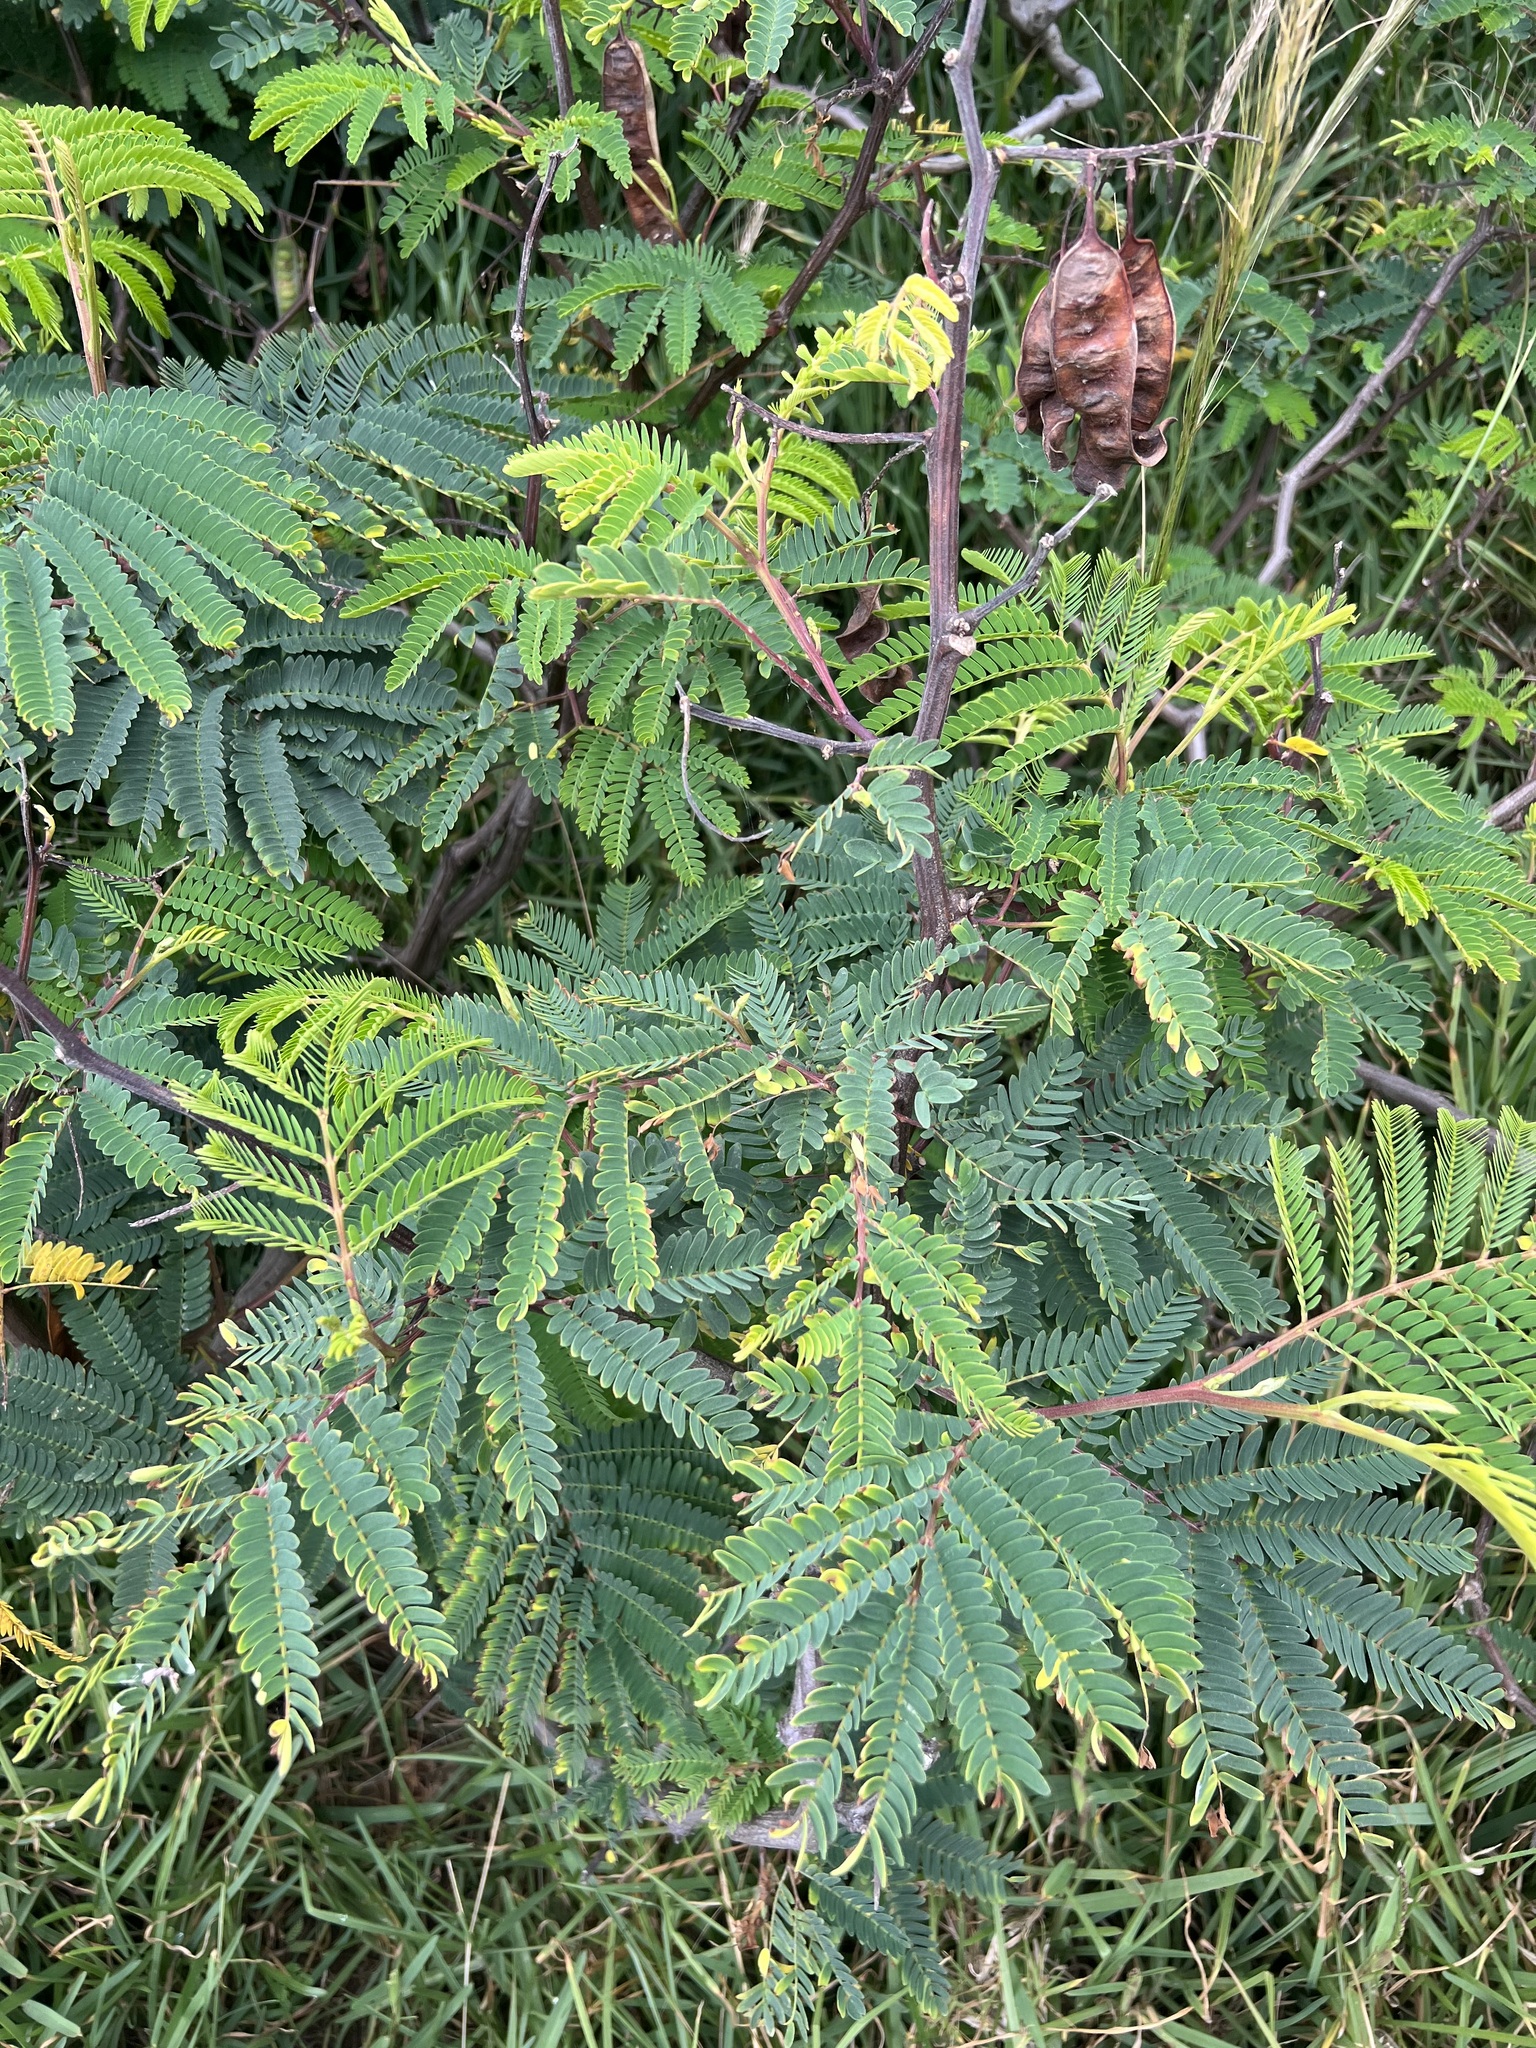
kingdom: Plantae
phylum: Tracheophyta
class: Magnoliopsida
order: Fabales
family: Fabaceae
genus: Paraserianthes
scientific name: Paraserianthes lophantha
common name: Plume albizia
